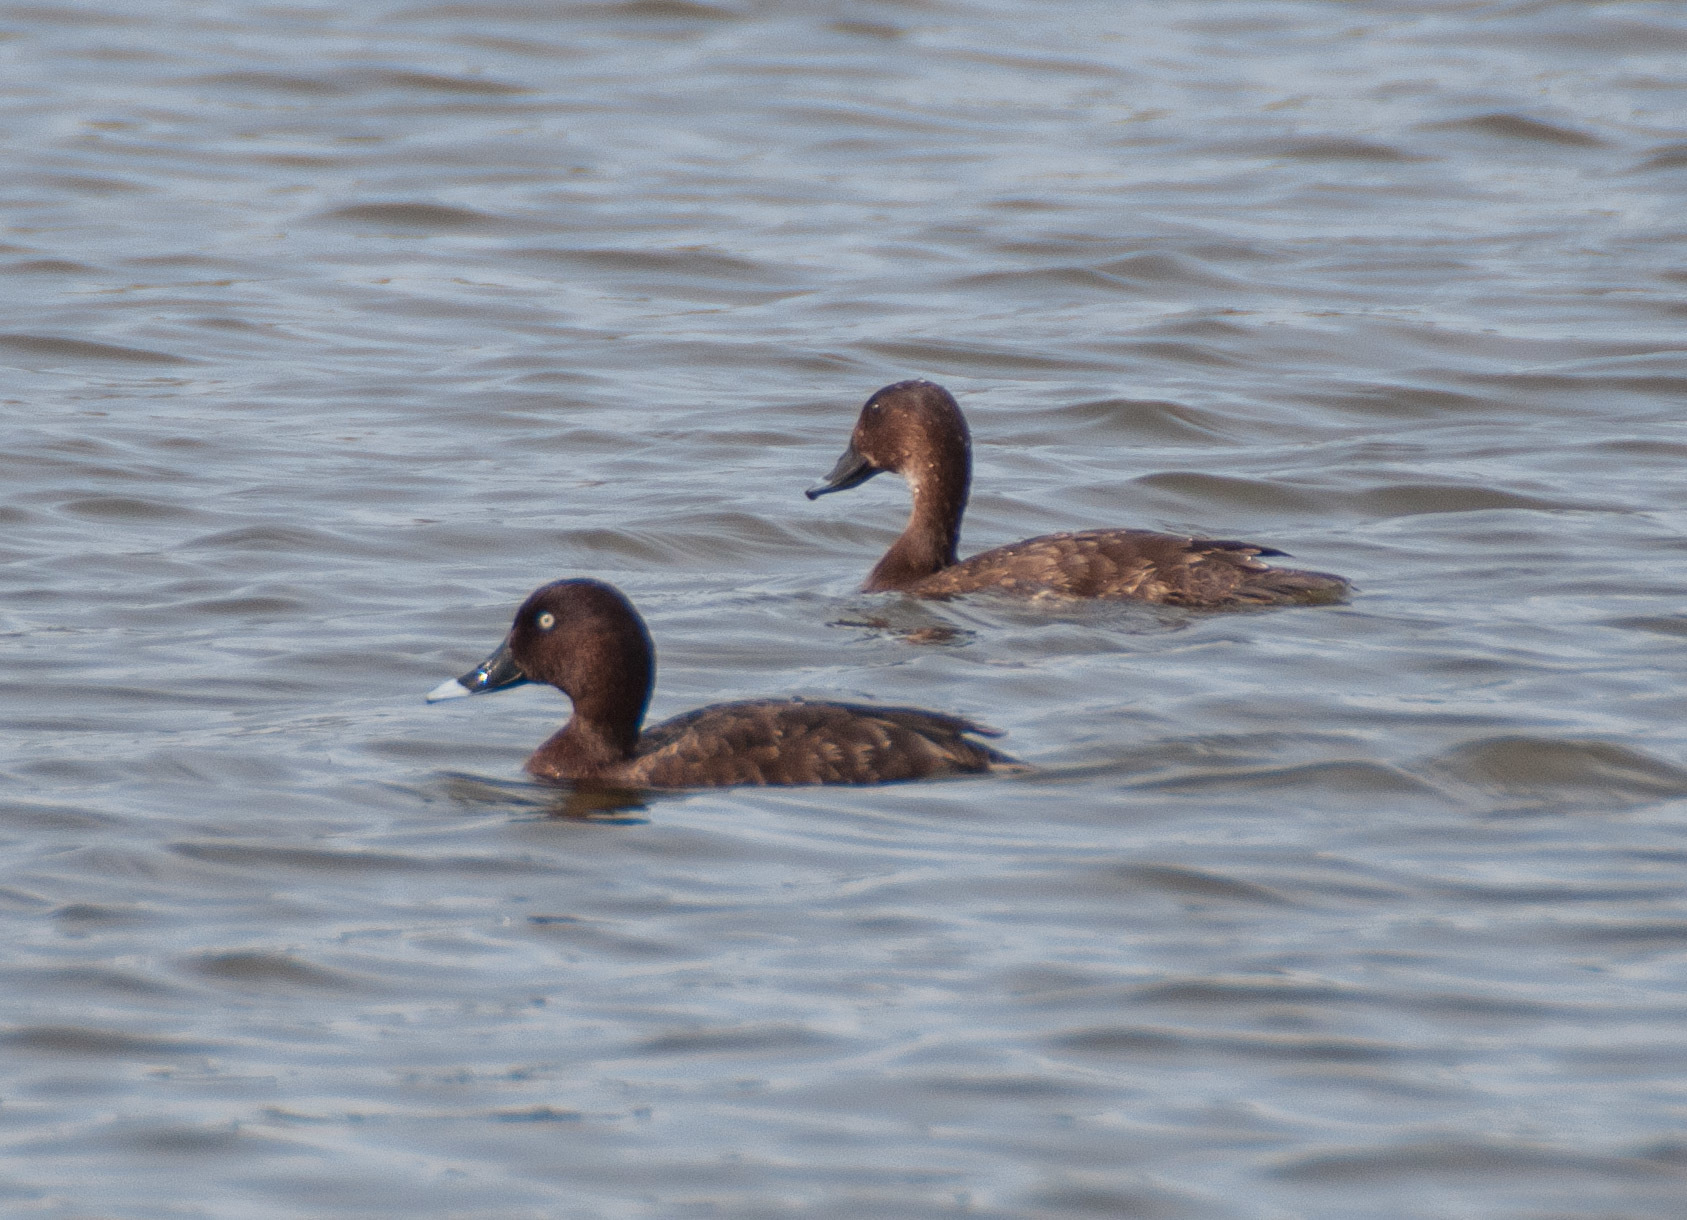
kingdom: Animalia
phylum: Chordata
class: Aves
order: Anseriformes
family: Anatidae
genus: Aythya
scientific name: Aythya australis
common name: Hardhead
